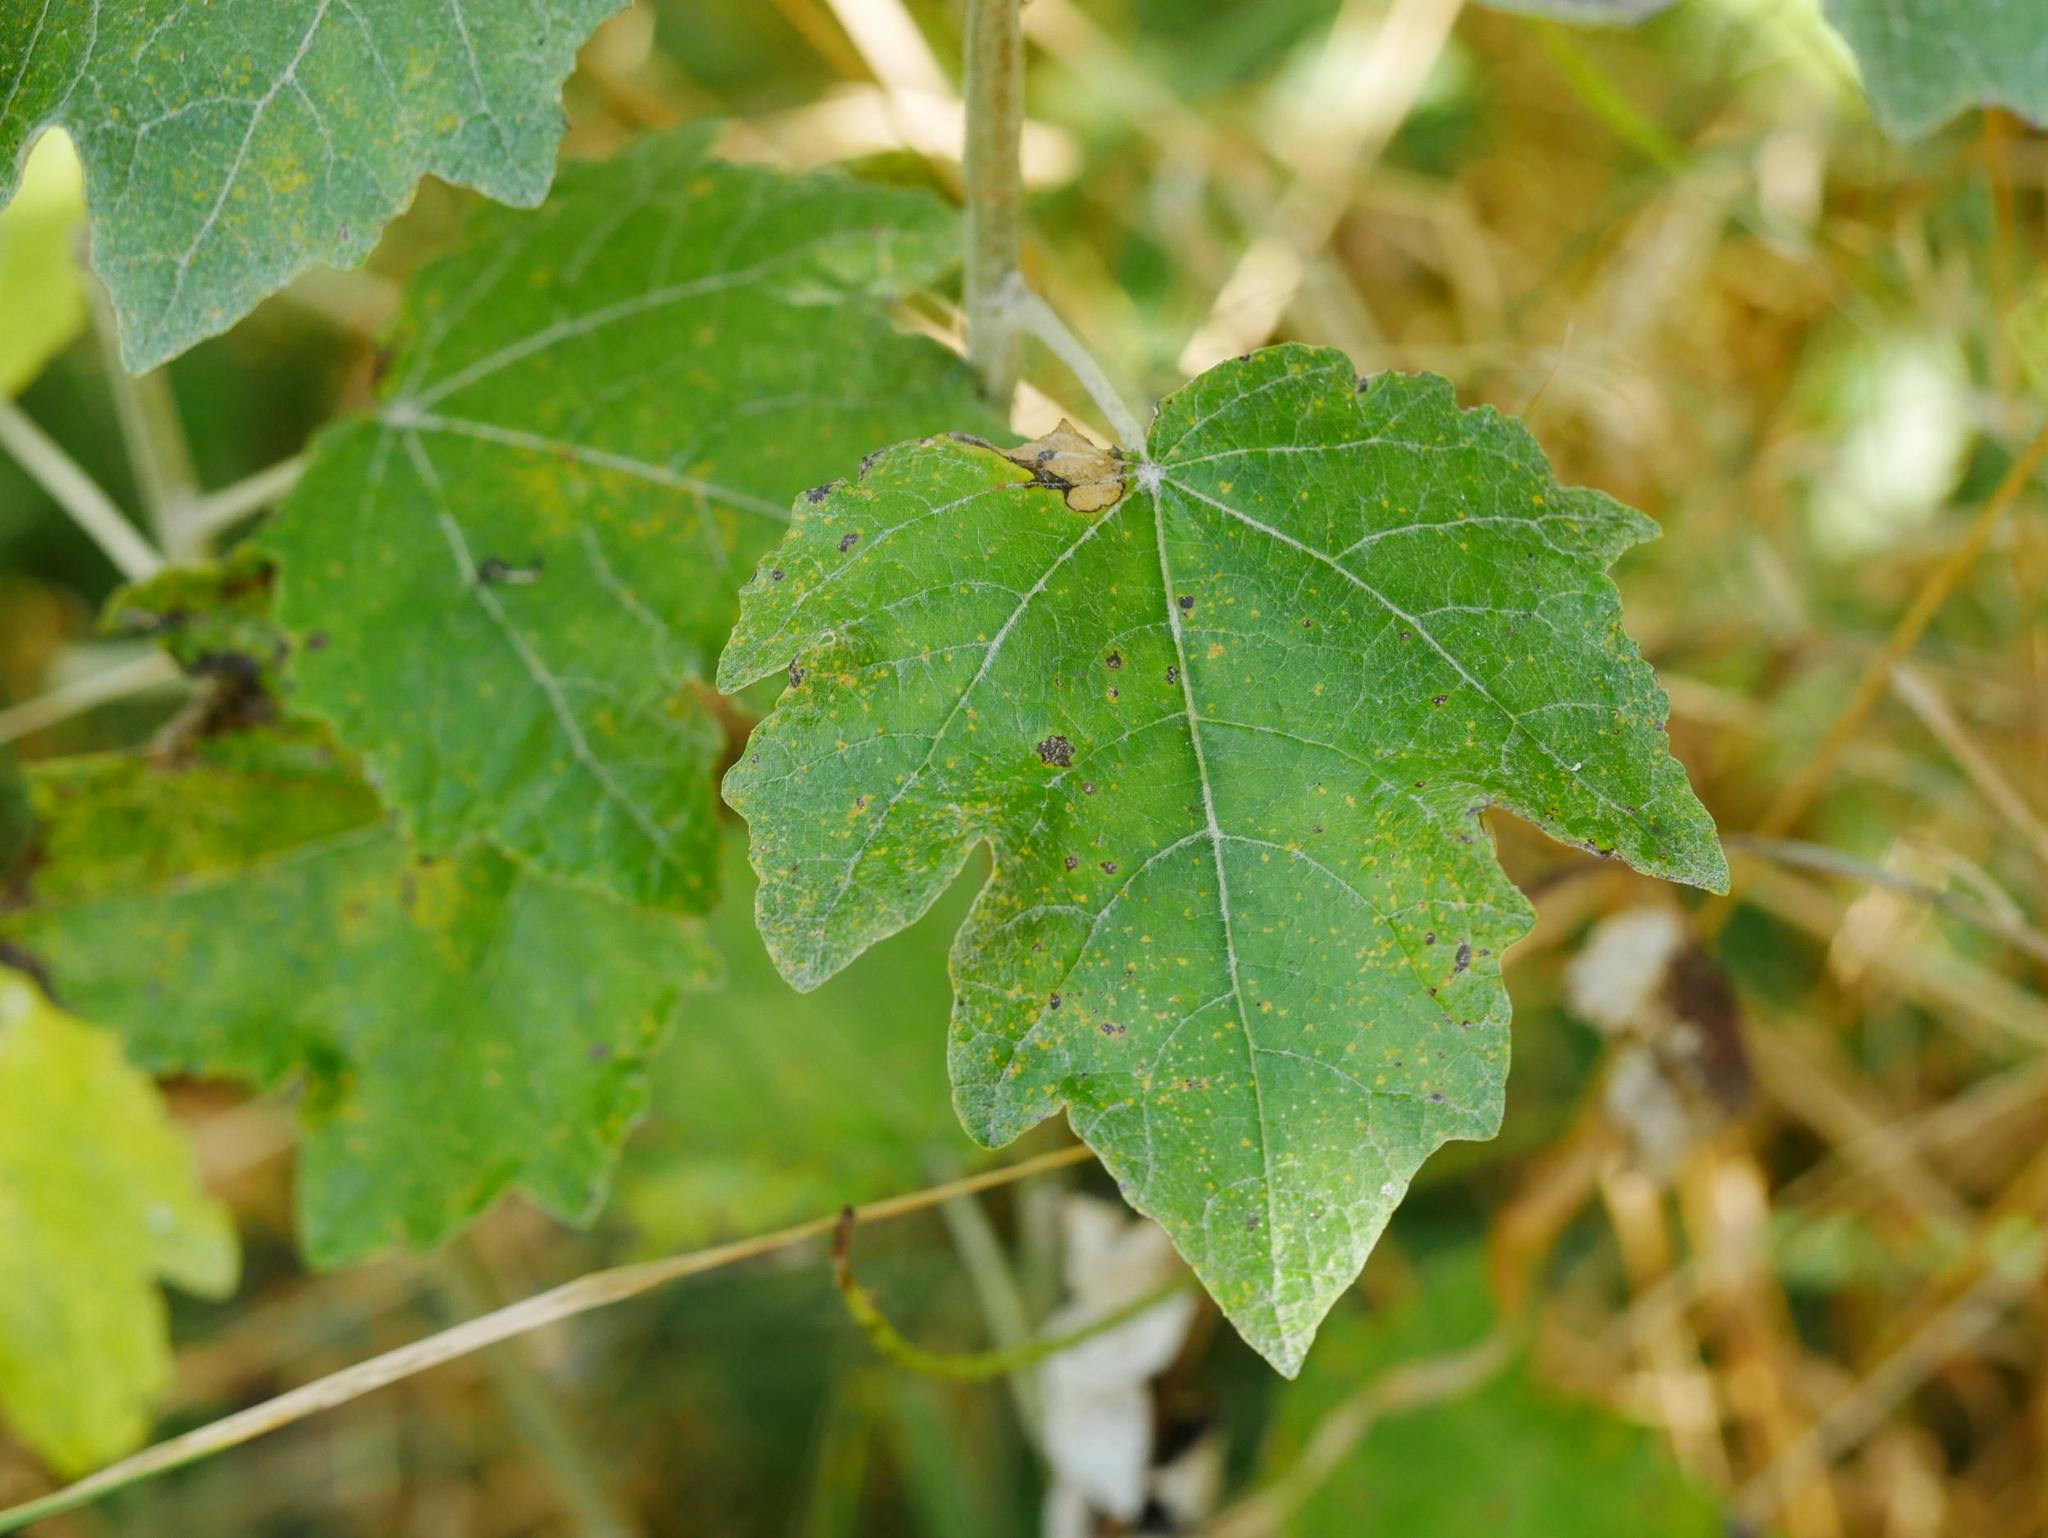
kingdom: Plantae
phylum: Tracheophyta
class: Magnoliopsida
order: Malpighiales
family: Salicaceae
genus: Populus
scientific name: Populus alba
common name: White poplar
